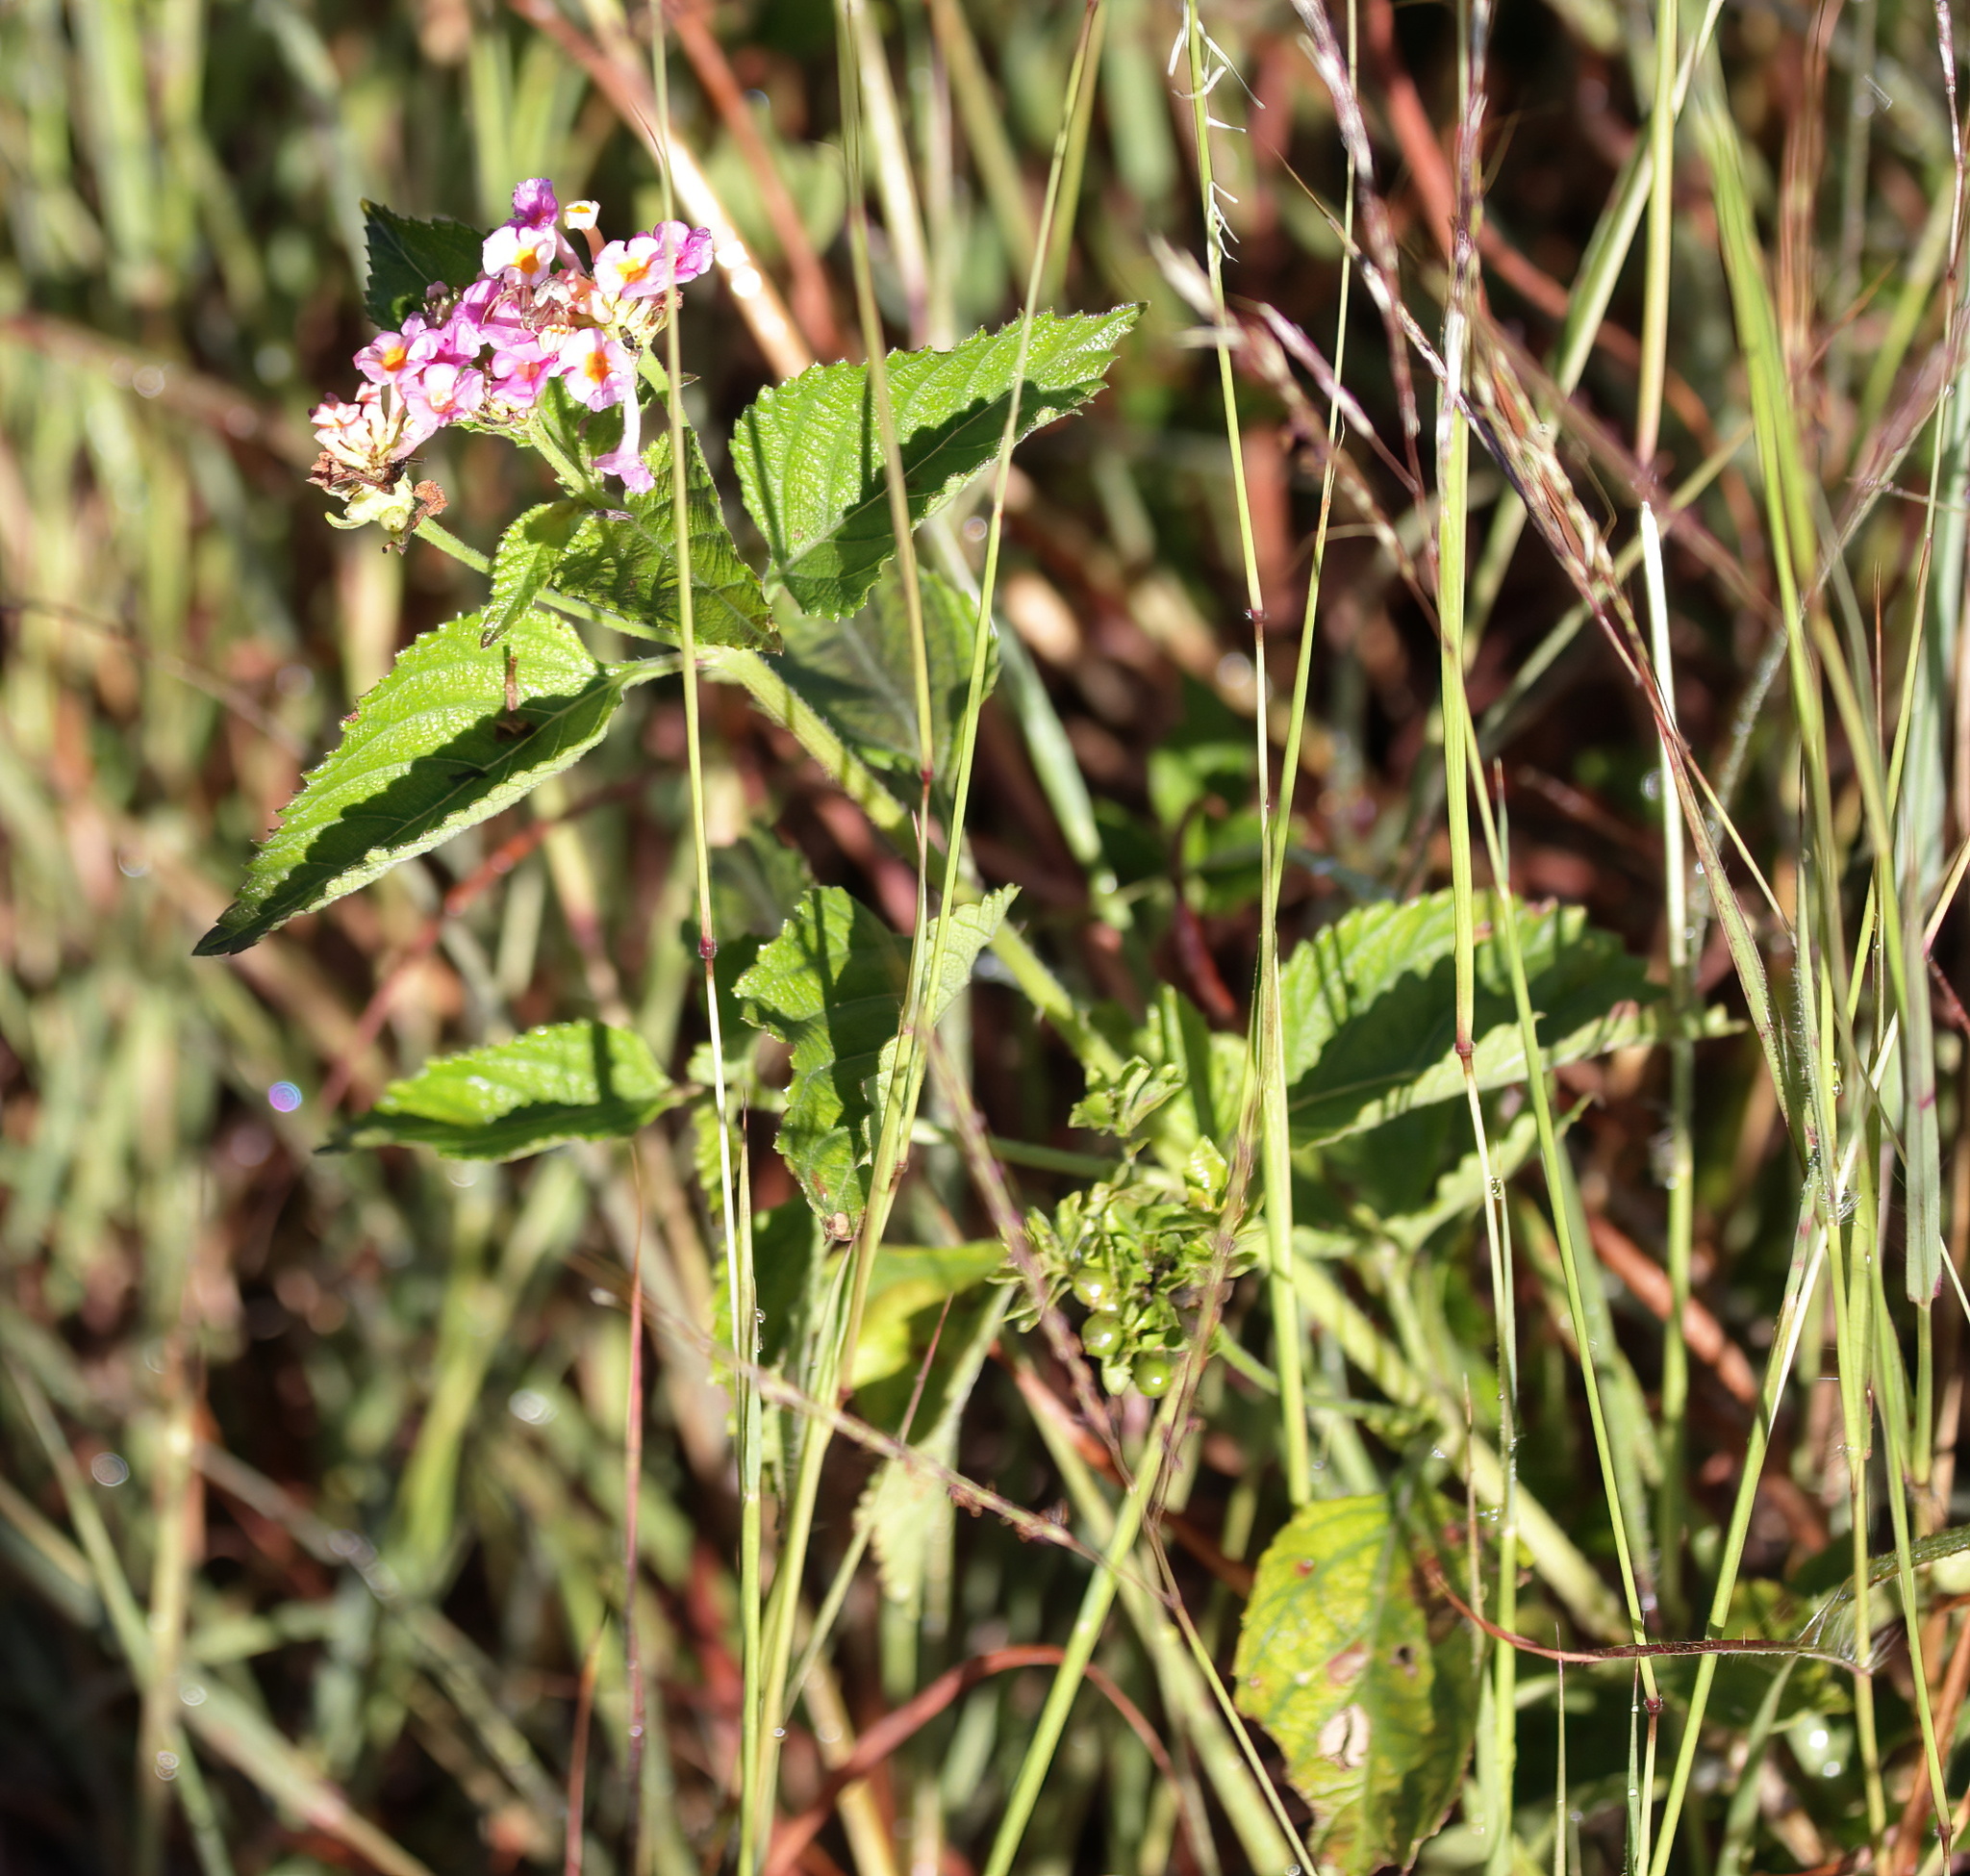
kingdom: Plantae
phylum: Tracheophyta
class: Magnoliopsida
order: Lamiales
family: Verbenaceae
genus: Lantana
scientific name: Lantana strigocamara
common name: Lantana
